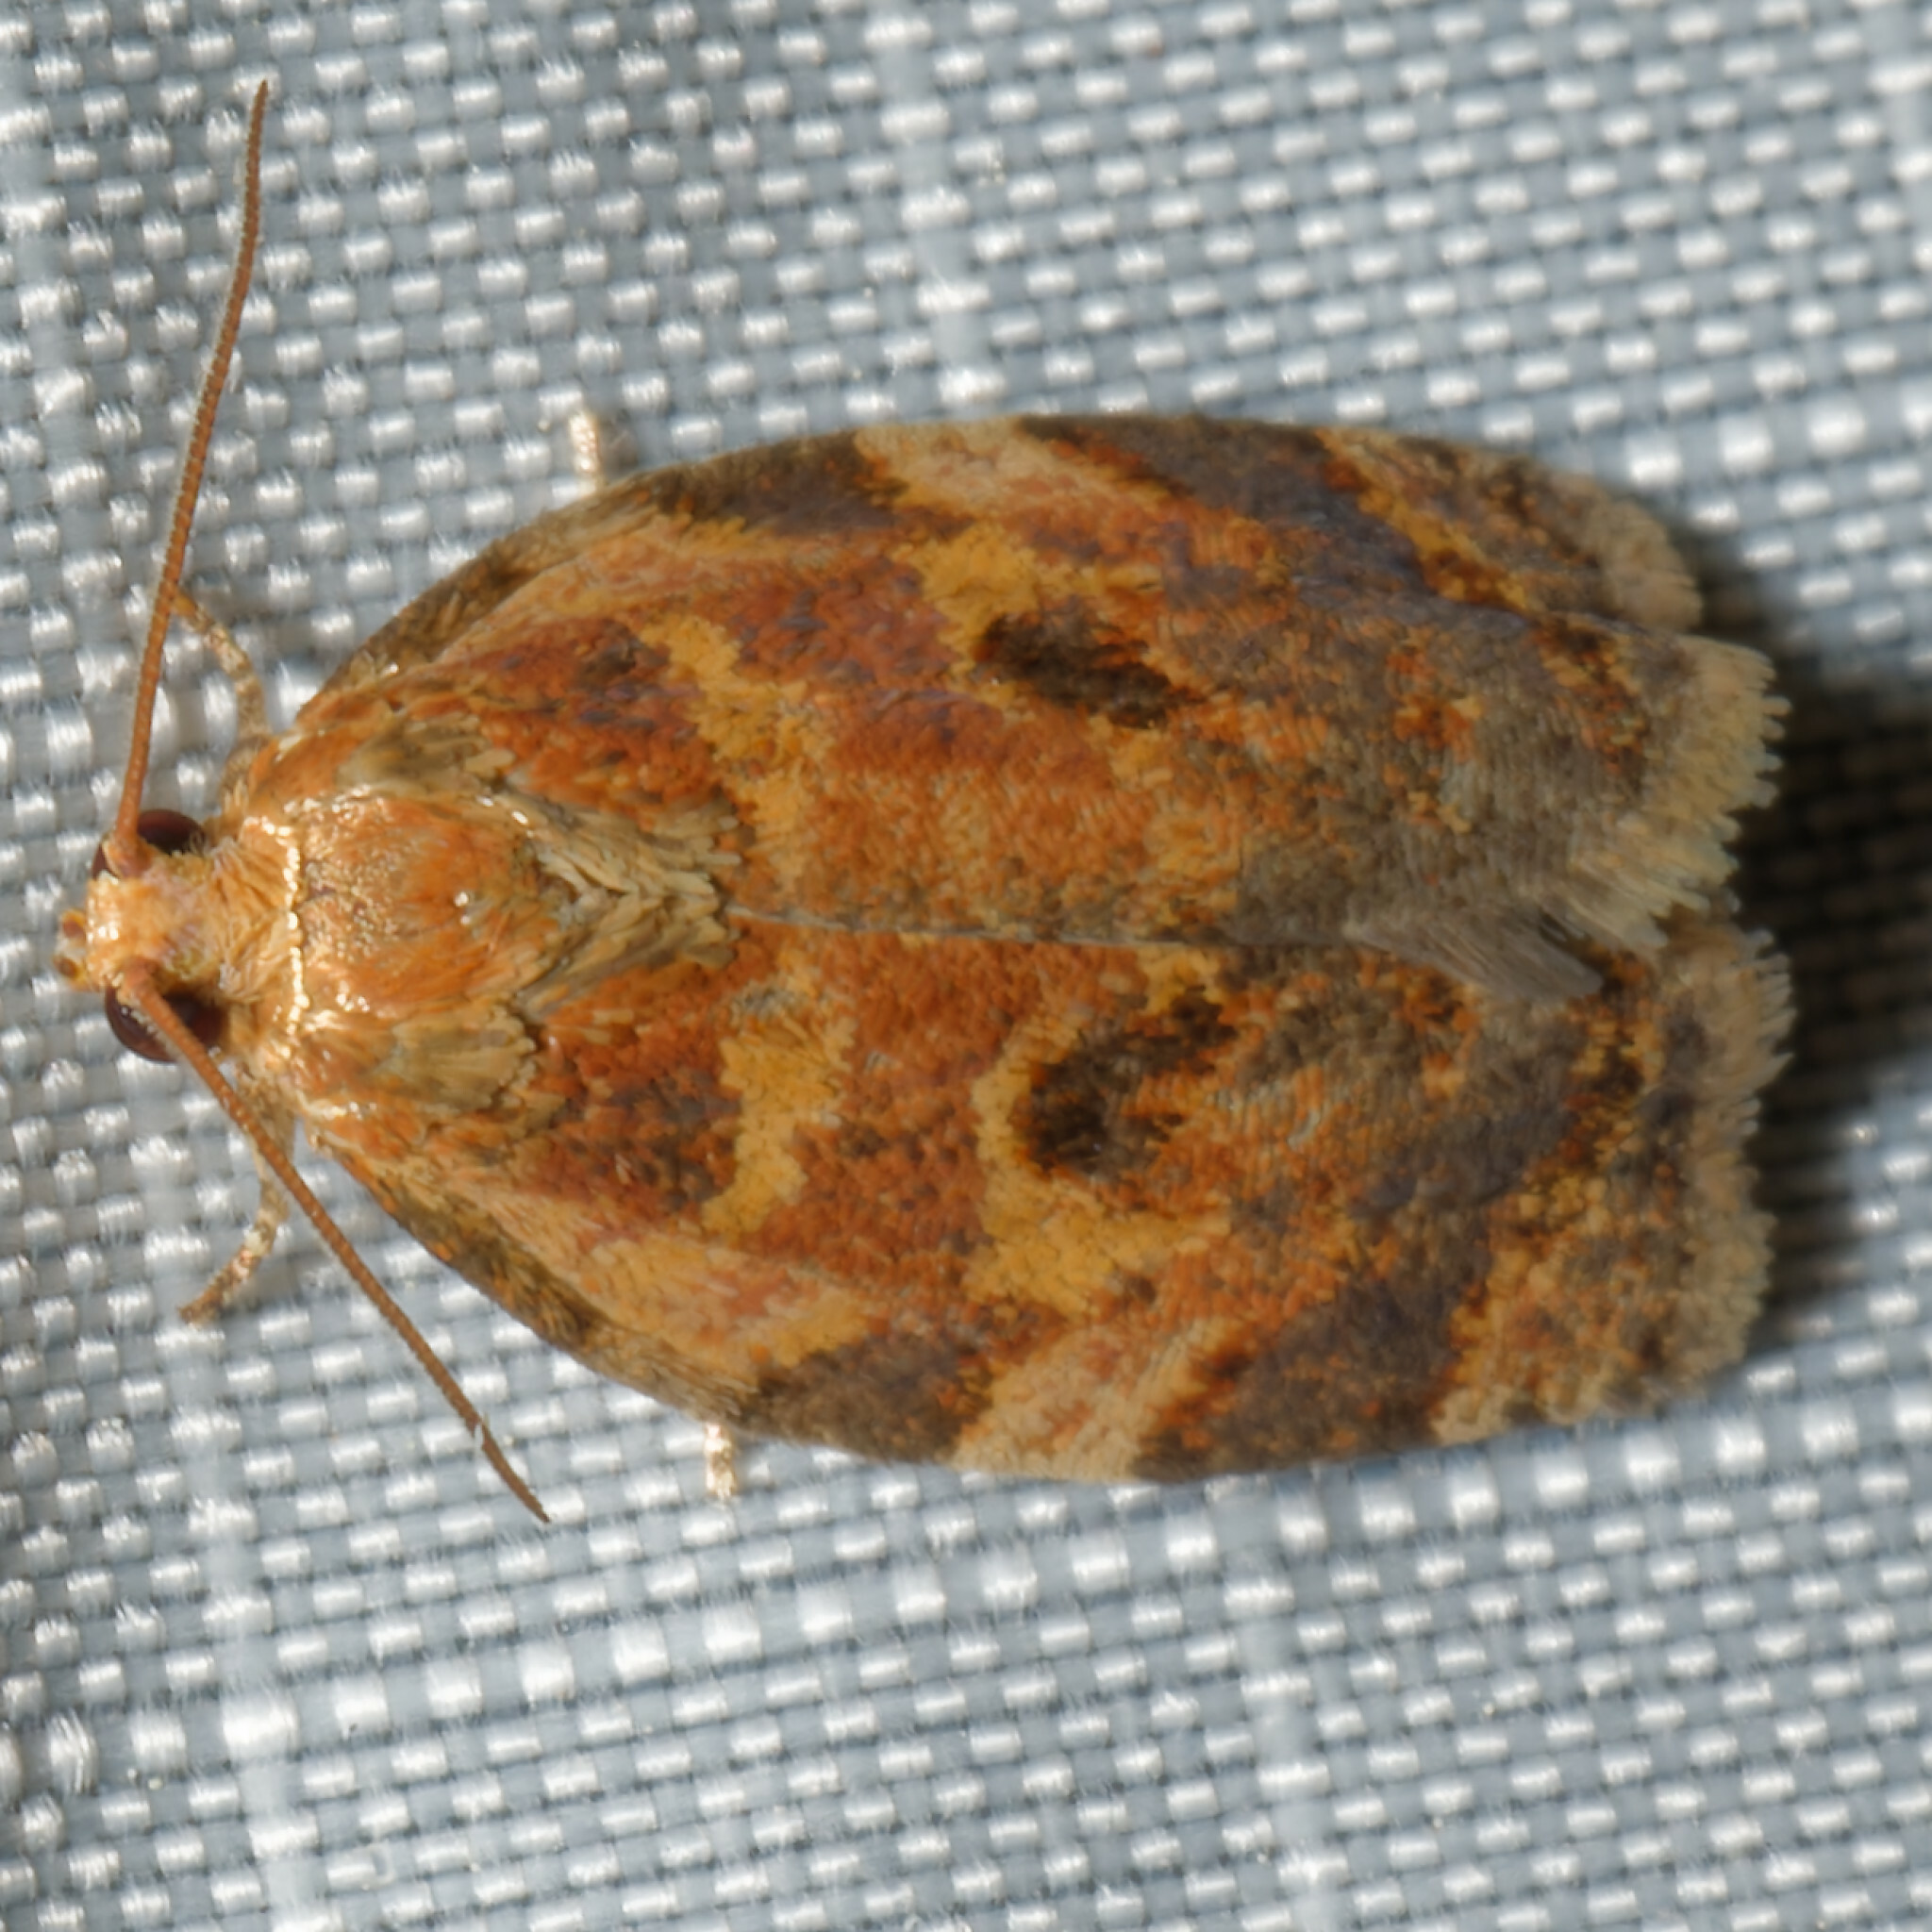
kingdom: Animalia
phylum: Arthropoda
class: Insecta
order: Lepidoptera
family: Tortricidae
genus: Archips
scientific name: Archips fervidana
